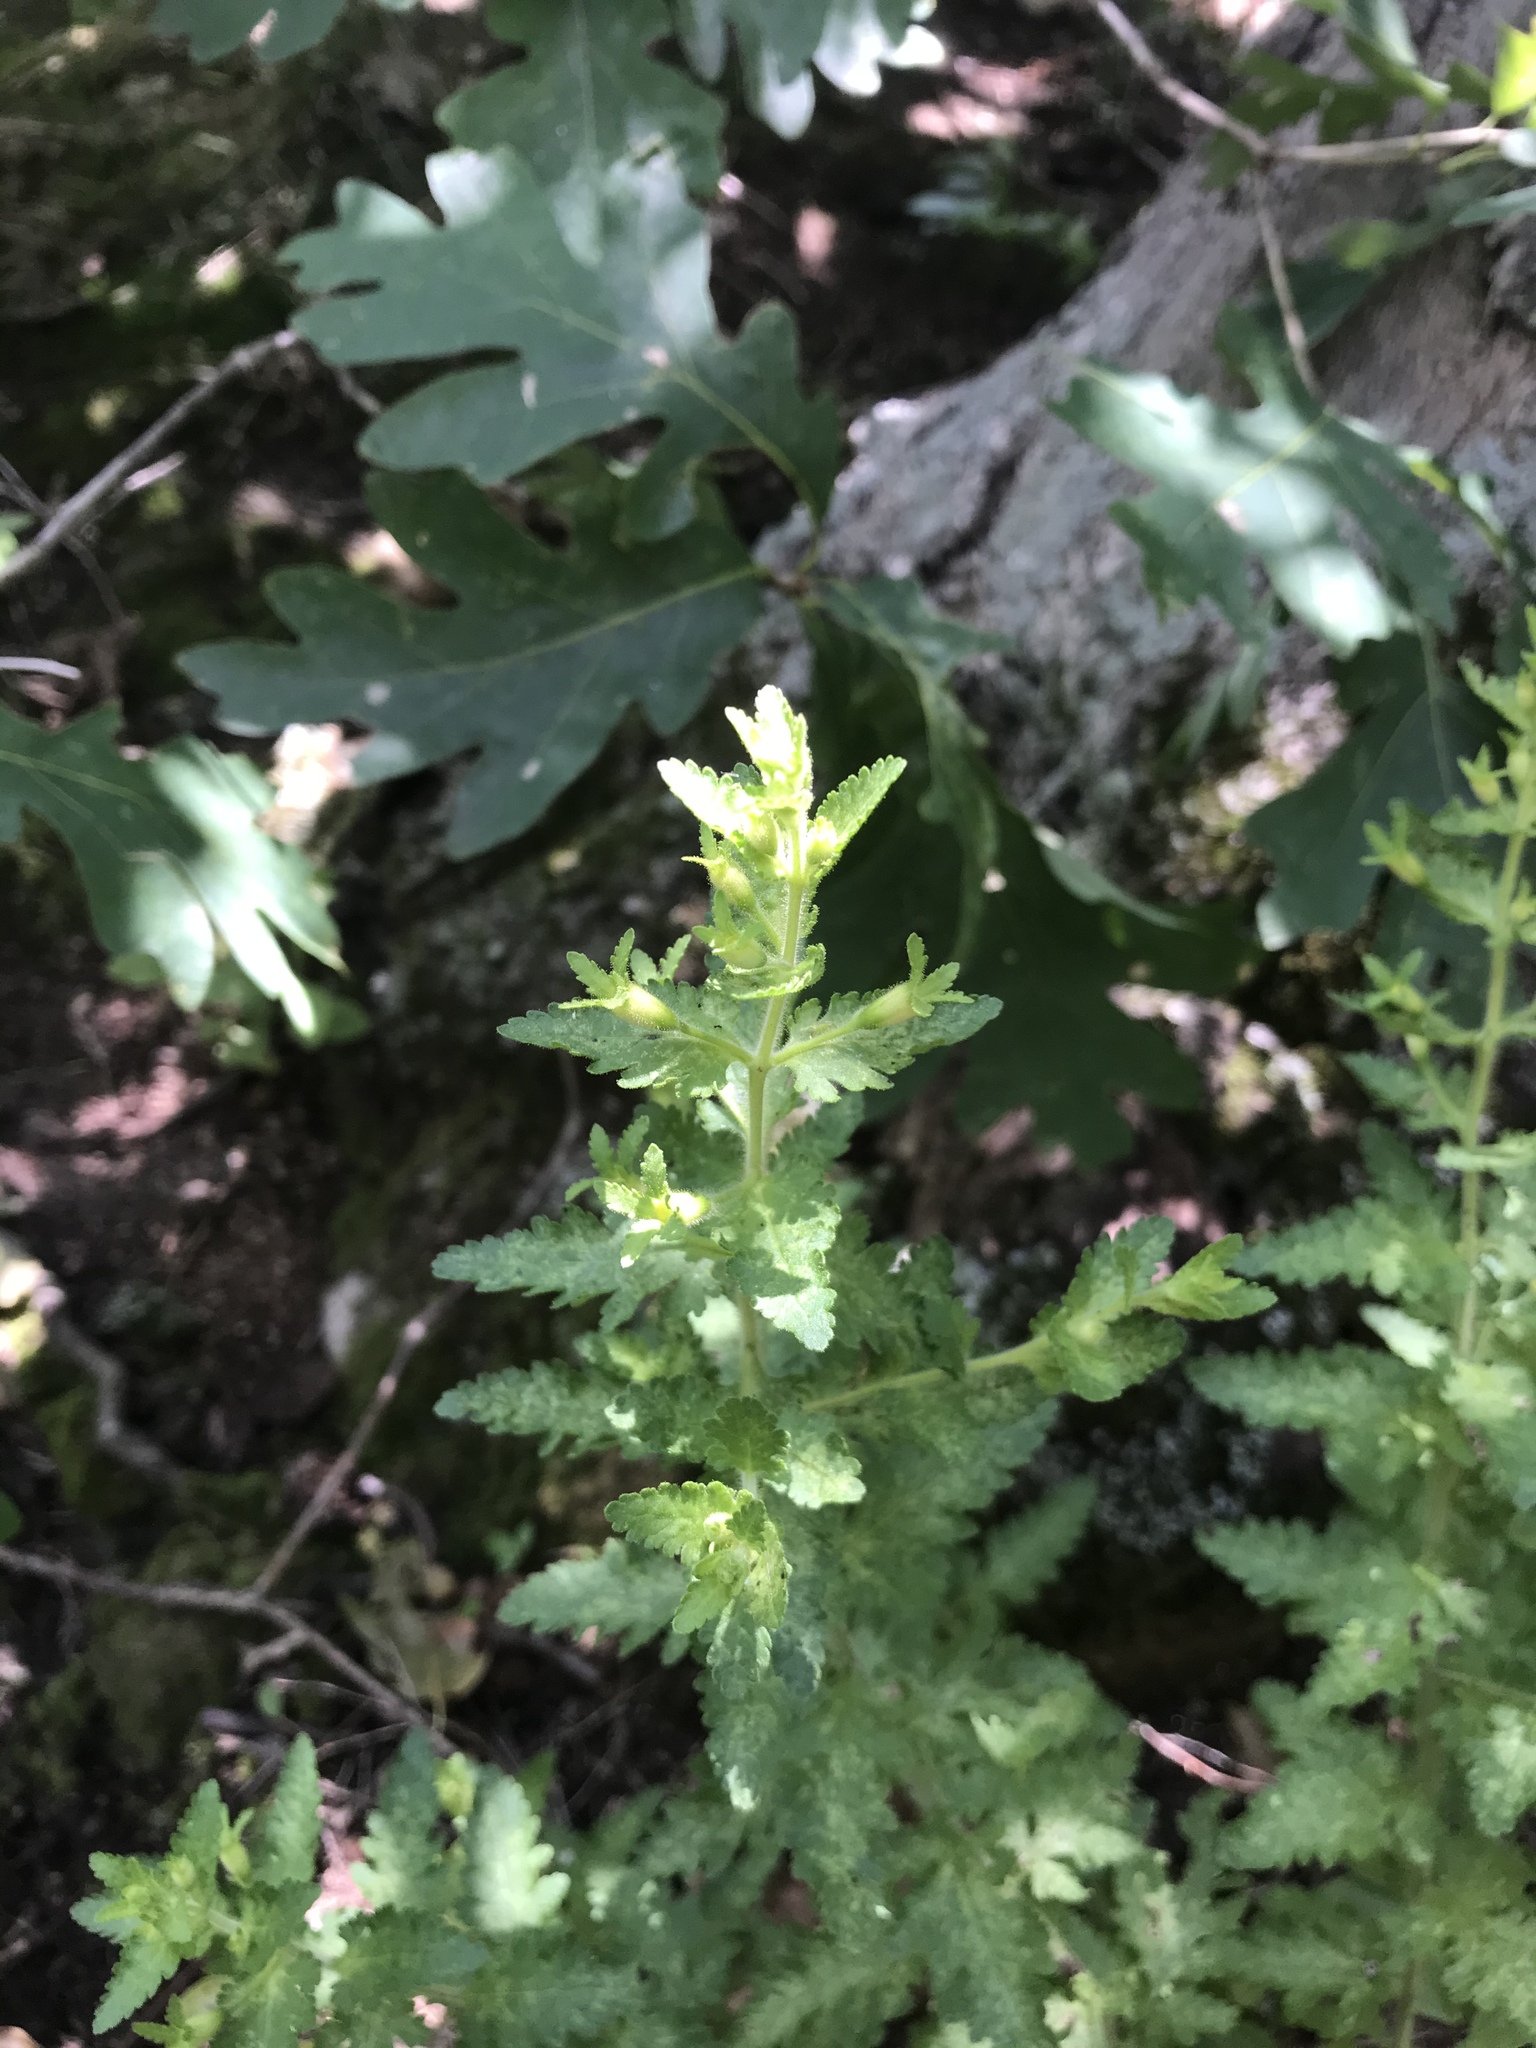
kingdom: Plantae
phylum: Tracheophyta
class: Magnoliopsida
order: Lamiales
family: Orobanchaceae
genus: Aureolaria
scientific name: Aureolaria pedicularia
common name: Annual false foxglove
